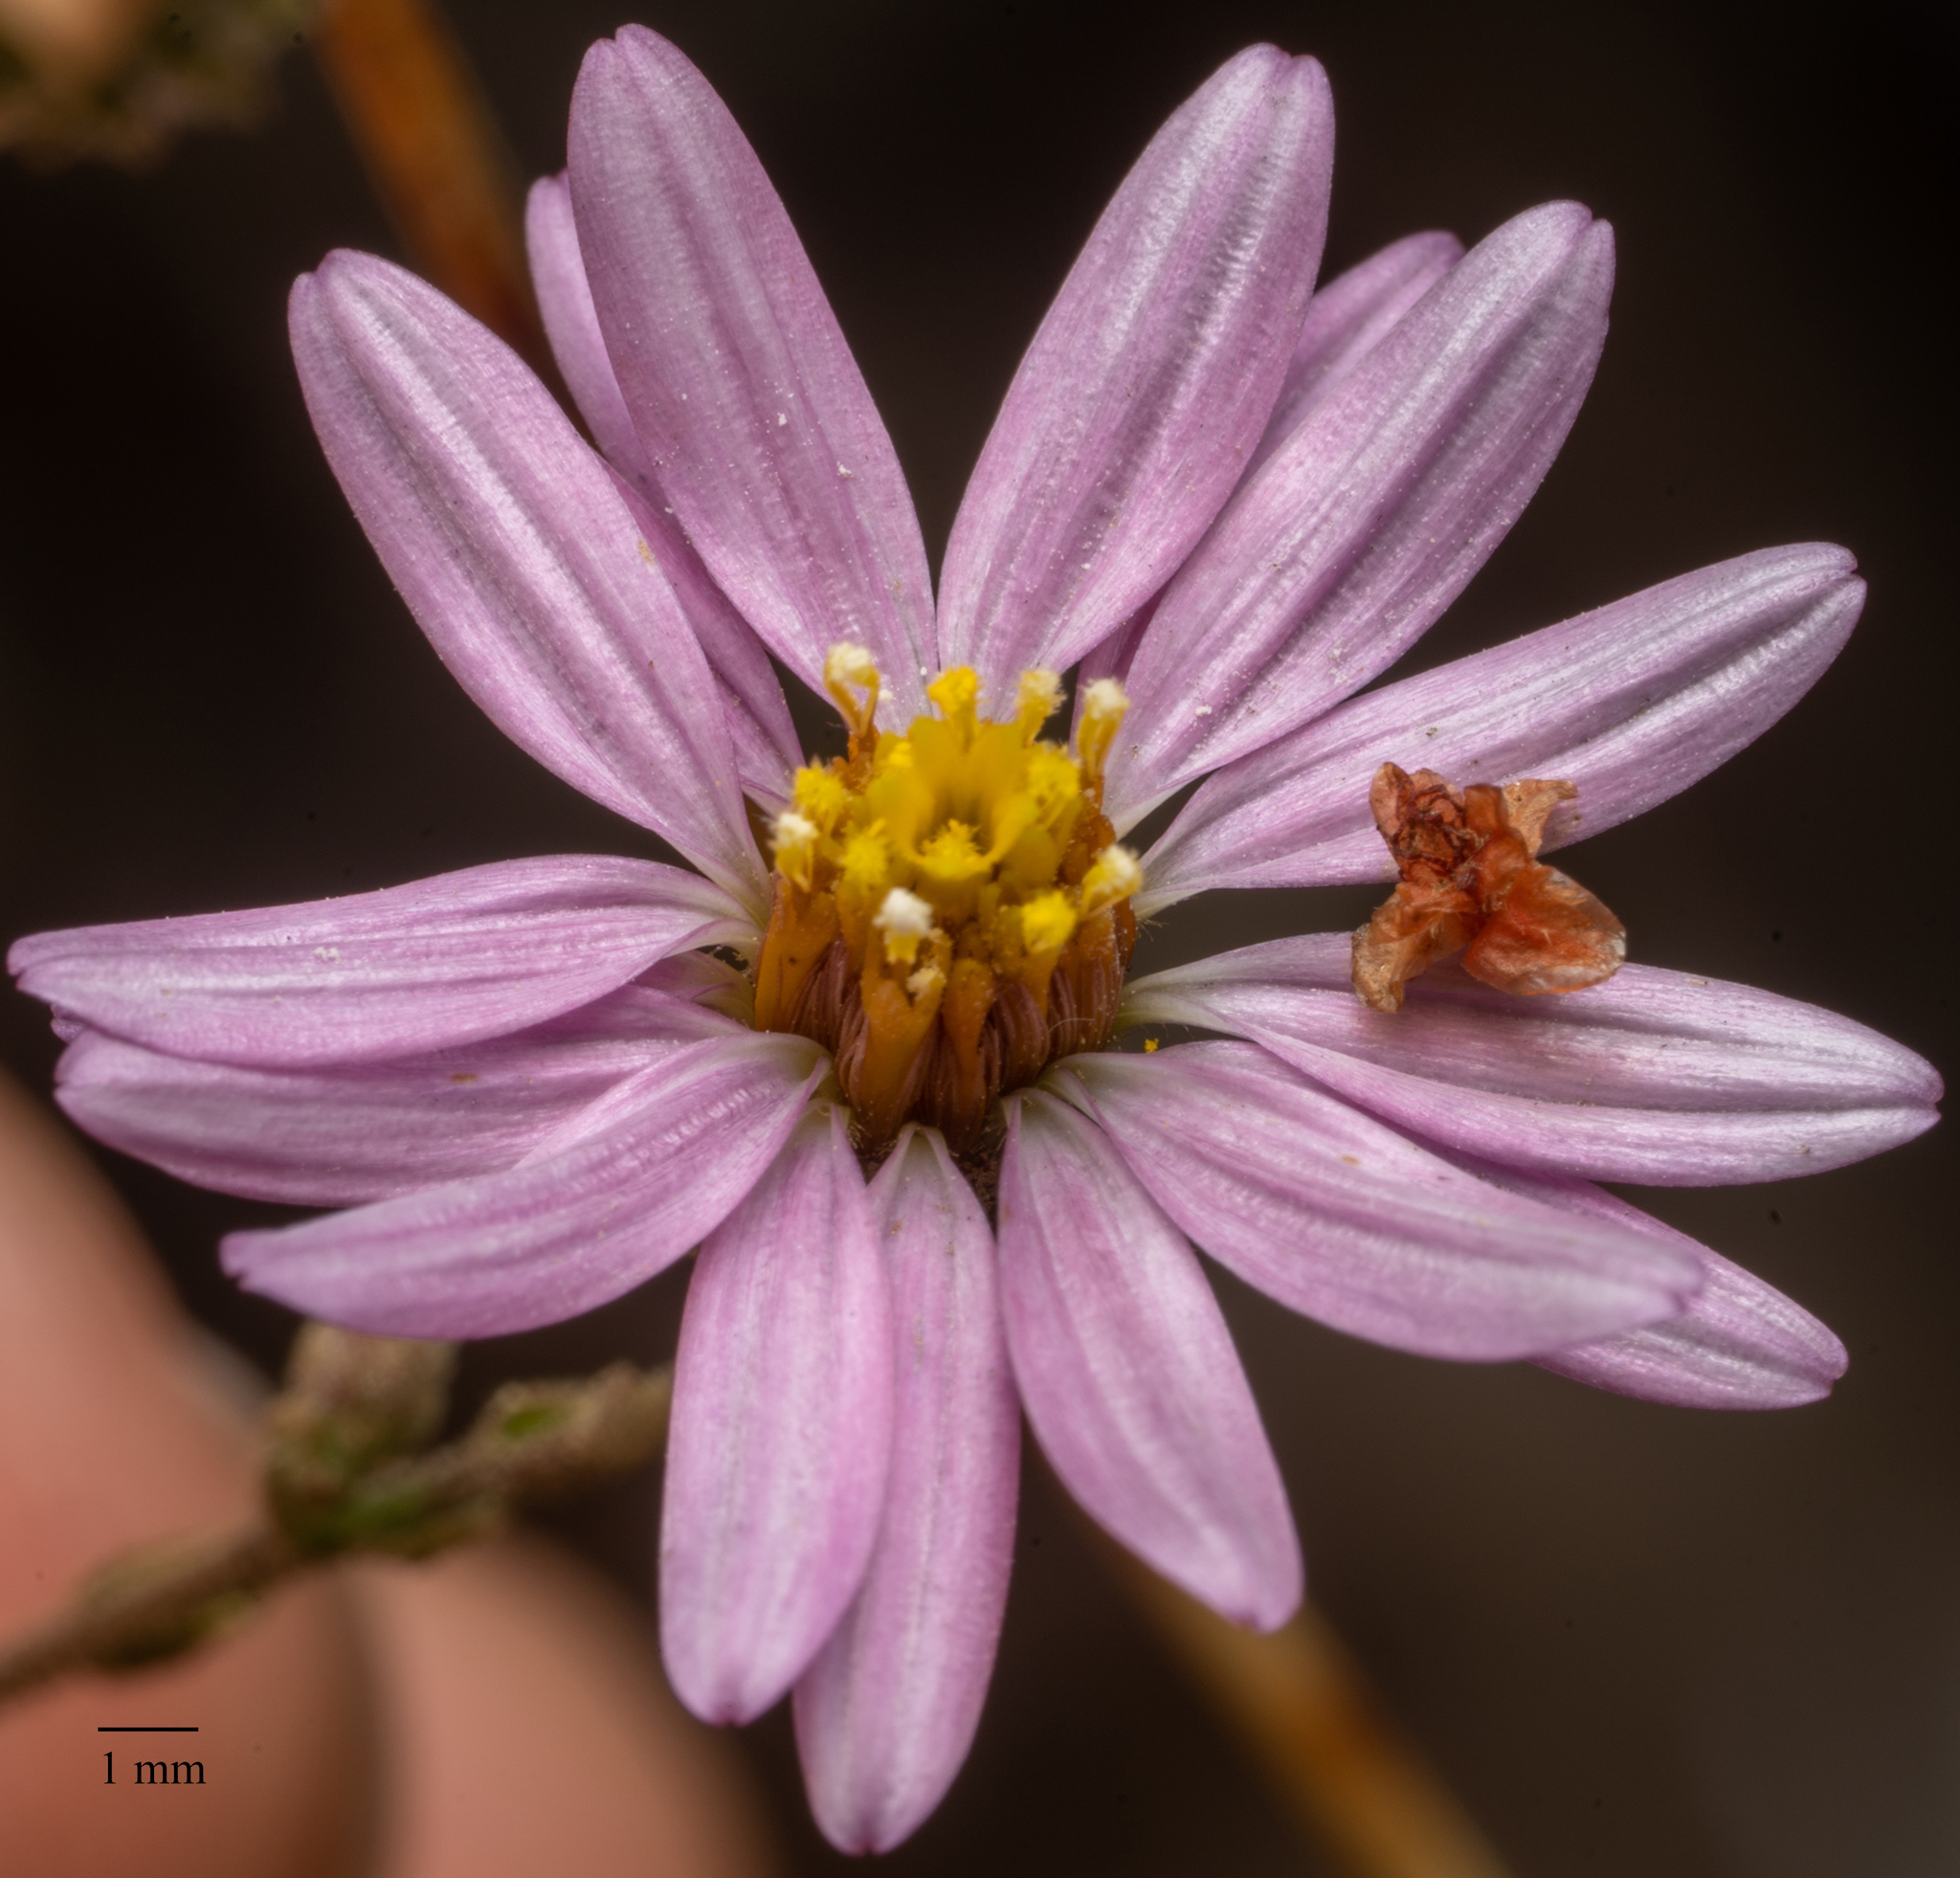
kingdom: Plantae
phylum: Tracheophyta
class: Magnoliopsida
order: Asterales
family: Asteraceae
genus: Corethrogyne
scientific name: Corethrogyne filaginifolia
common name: Sand-aster
